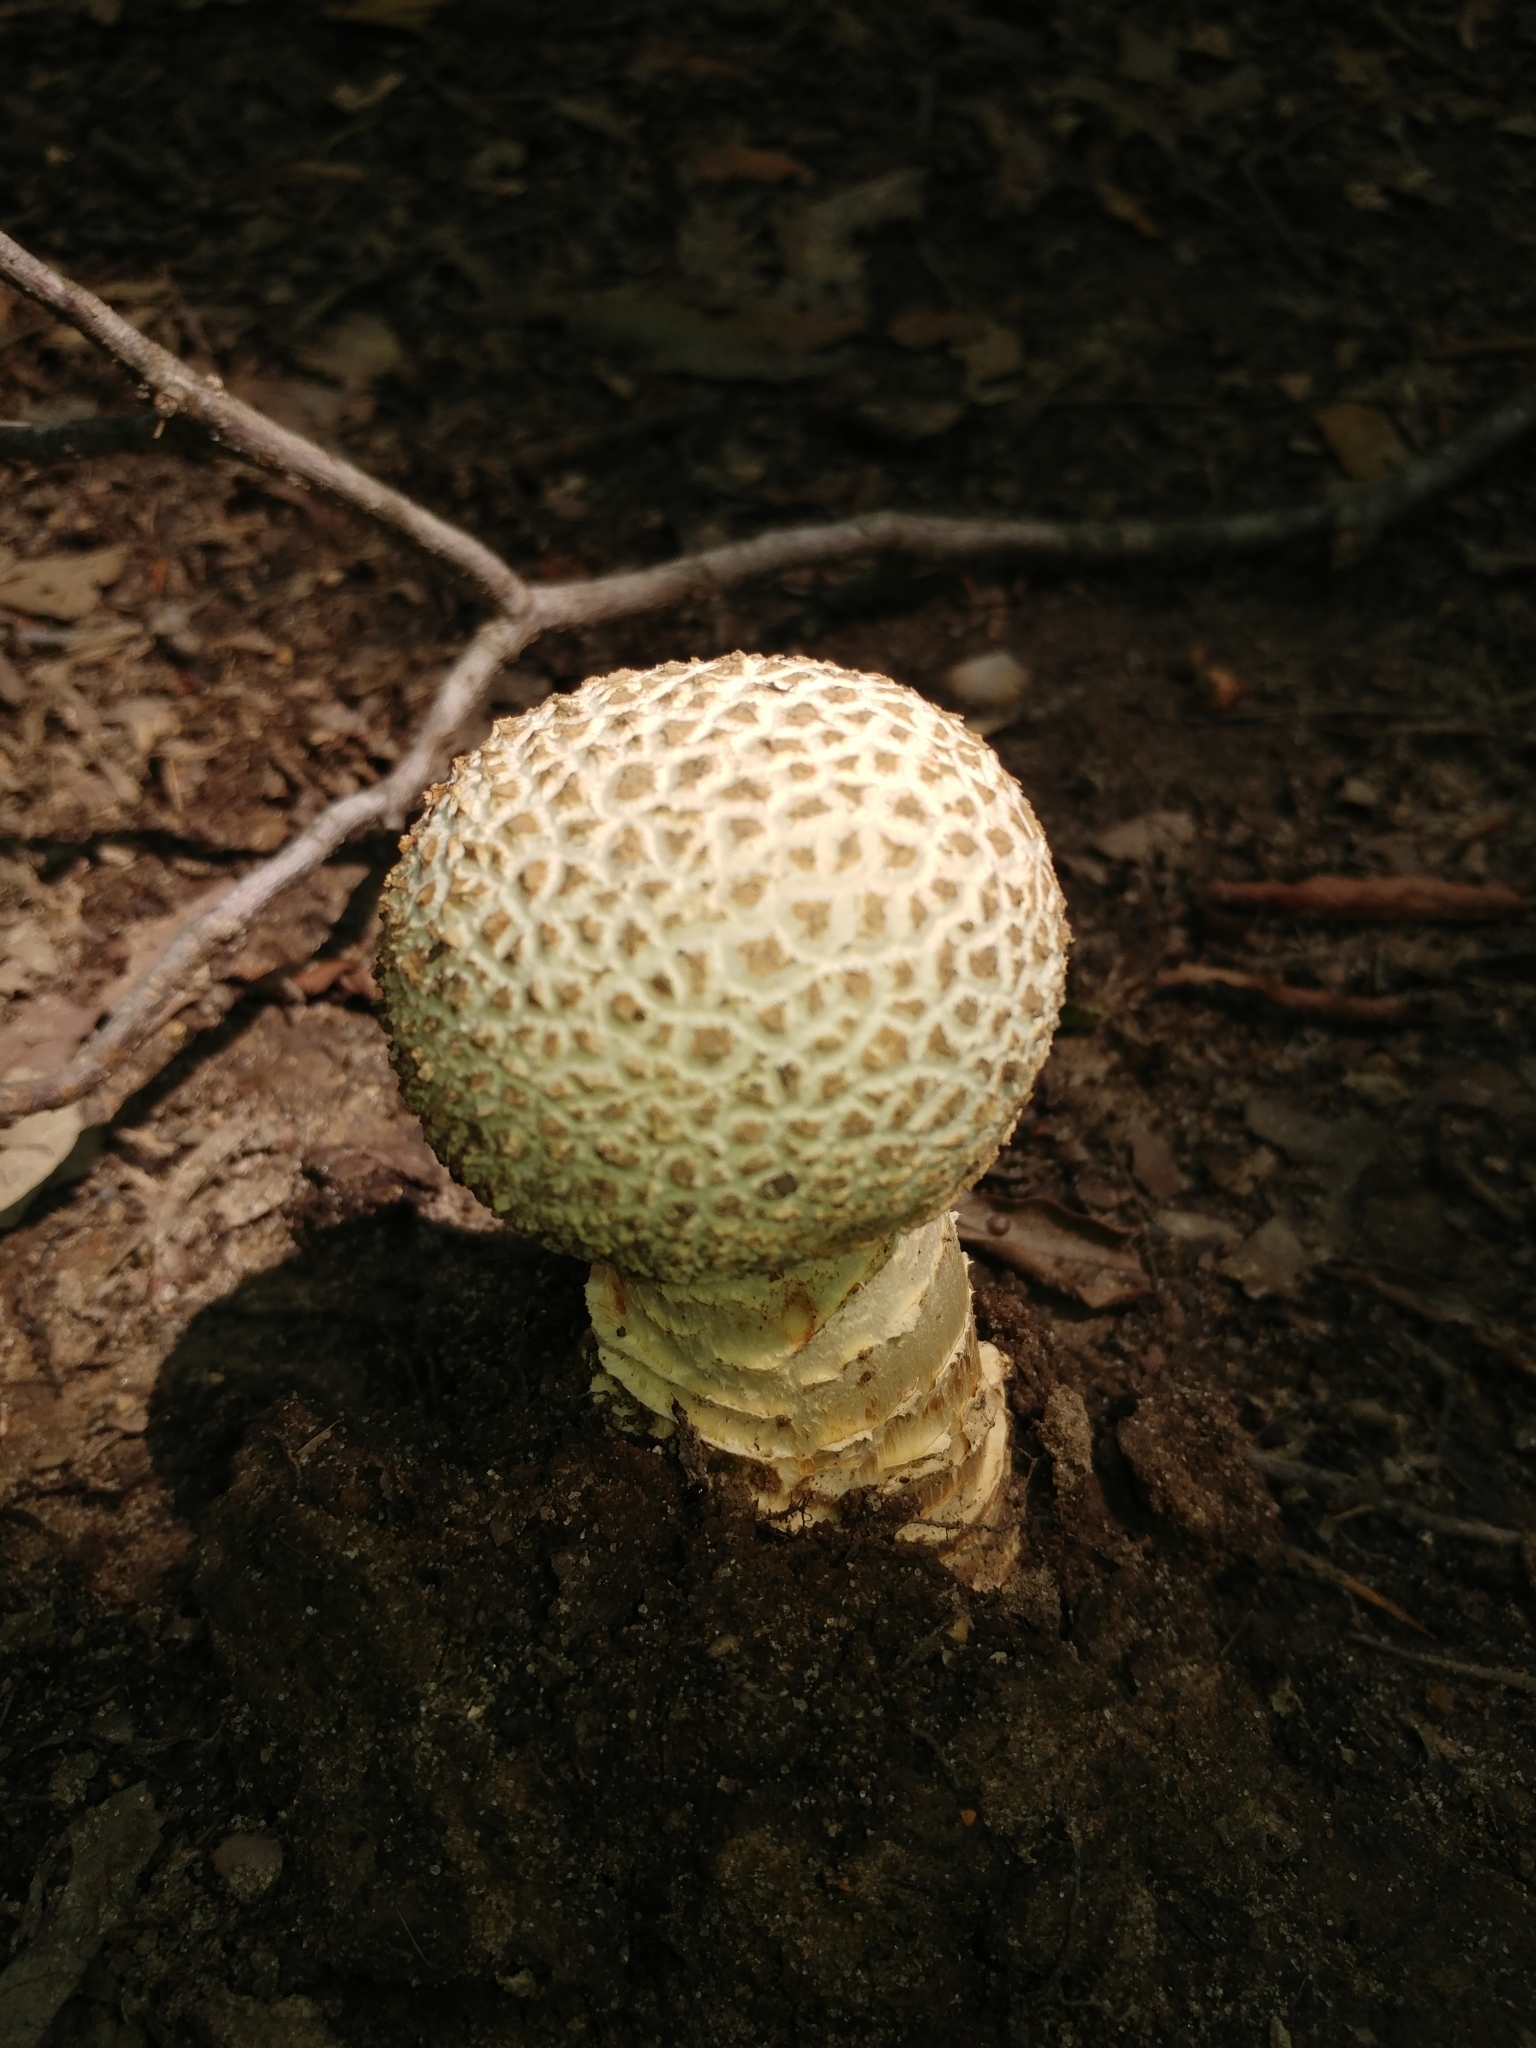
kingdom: Fungi
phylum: Basidiomycota
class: Agaricomycetes
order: Agaricales
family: Amanitaceae
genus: Amanita
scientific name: Amanita ravenelii
